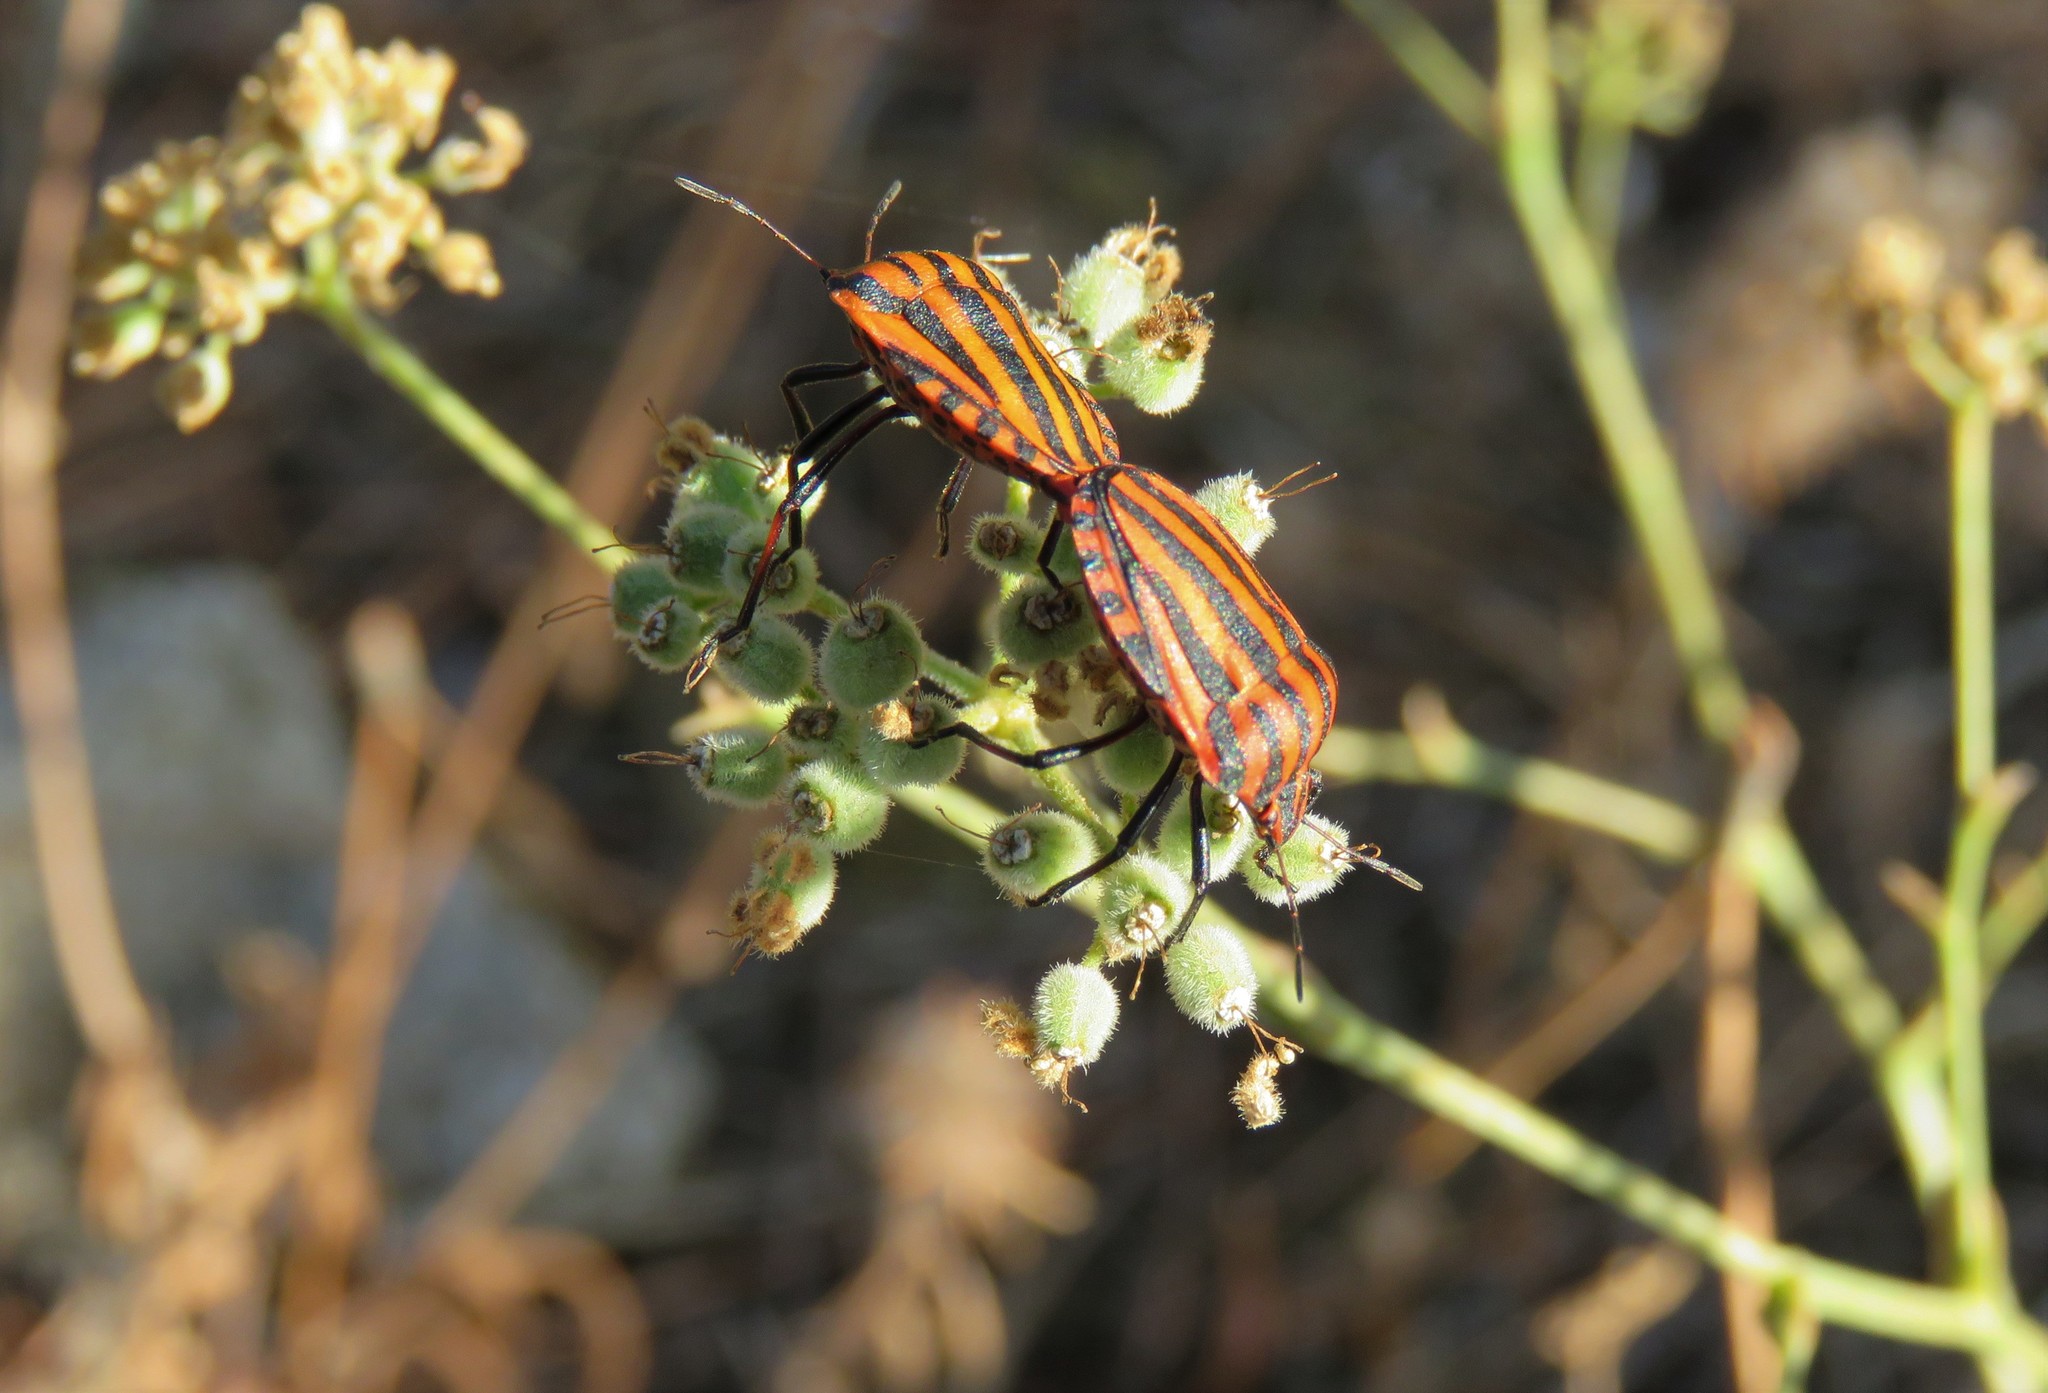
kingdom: Animalia
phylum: Arthropoda
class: Insecta
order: Hemiptera
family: Pentatomidae
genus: Graphosoma
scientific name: Graphosoma italicum
